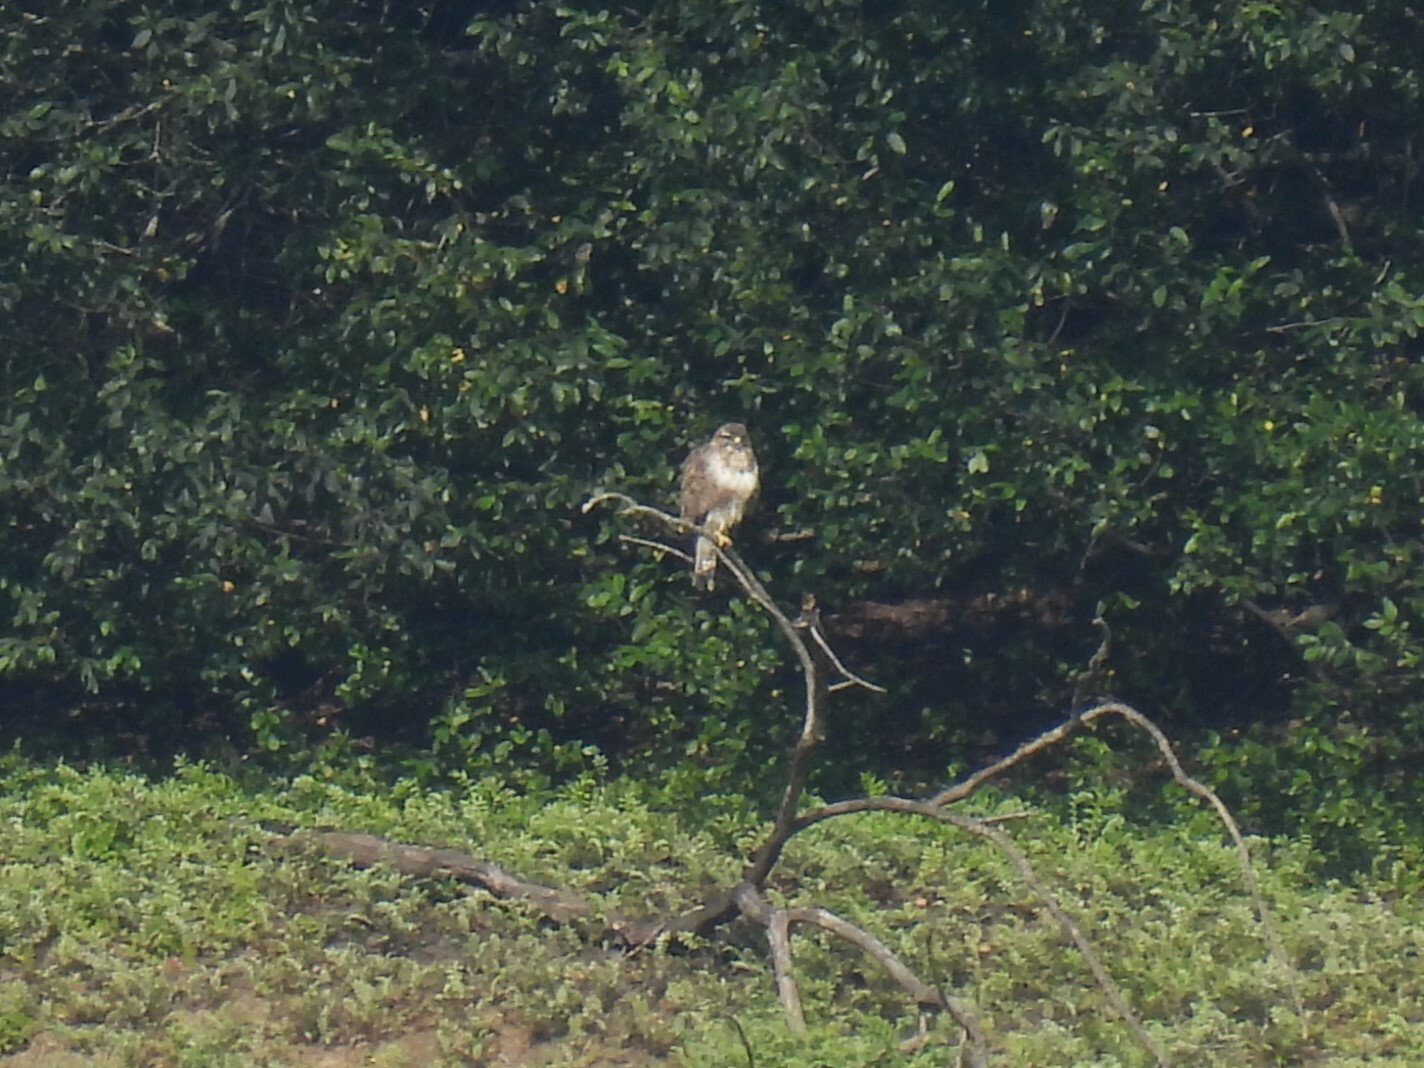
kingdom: Animalia
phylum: Chordata
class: Aves
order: Accipitriformes
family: Accipitridae
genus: Buteo
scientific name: Buteo buteo
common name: Common buzzard
